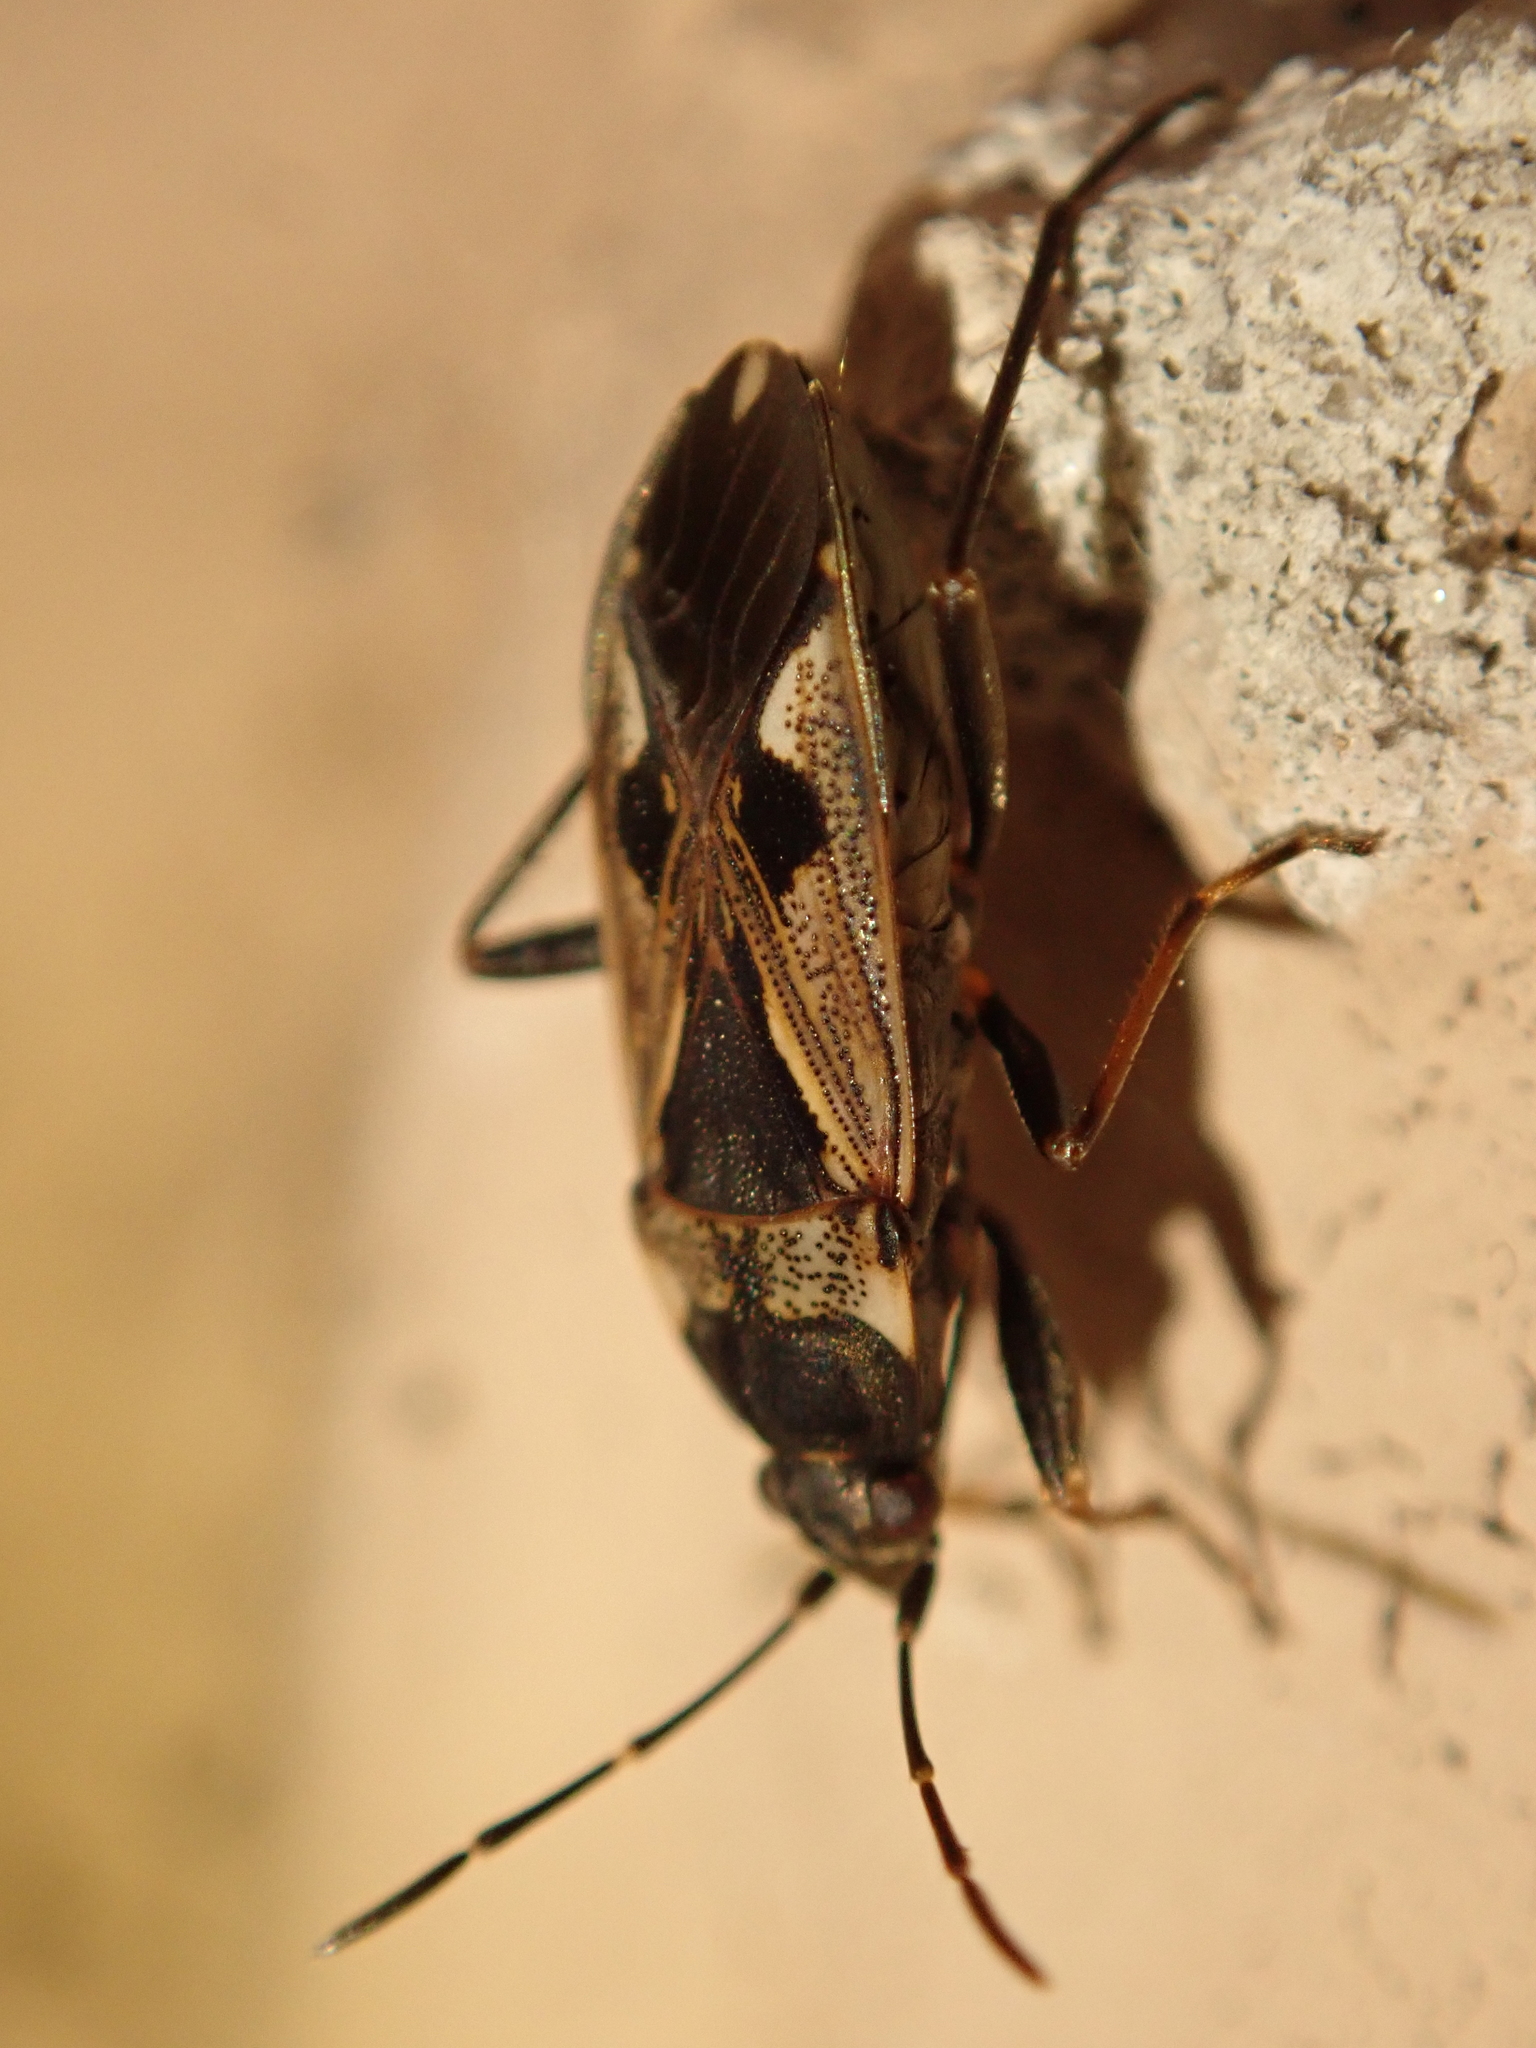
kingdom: Animalia
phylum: Arthropoda
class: Insecta
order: Hemiptera
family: Rhyparochromidae
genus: Rhyparochromus
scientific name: Rhyparochromus vulgaris
